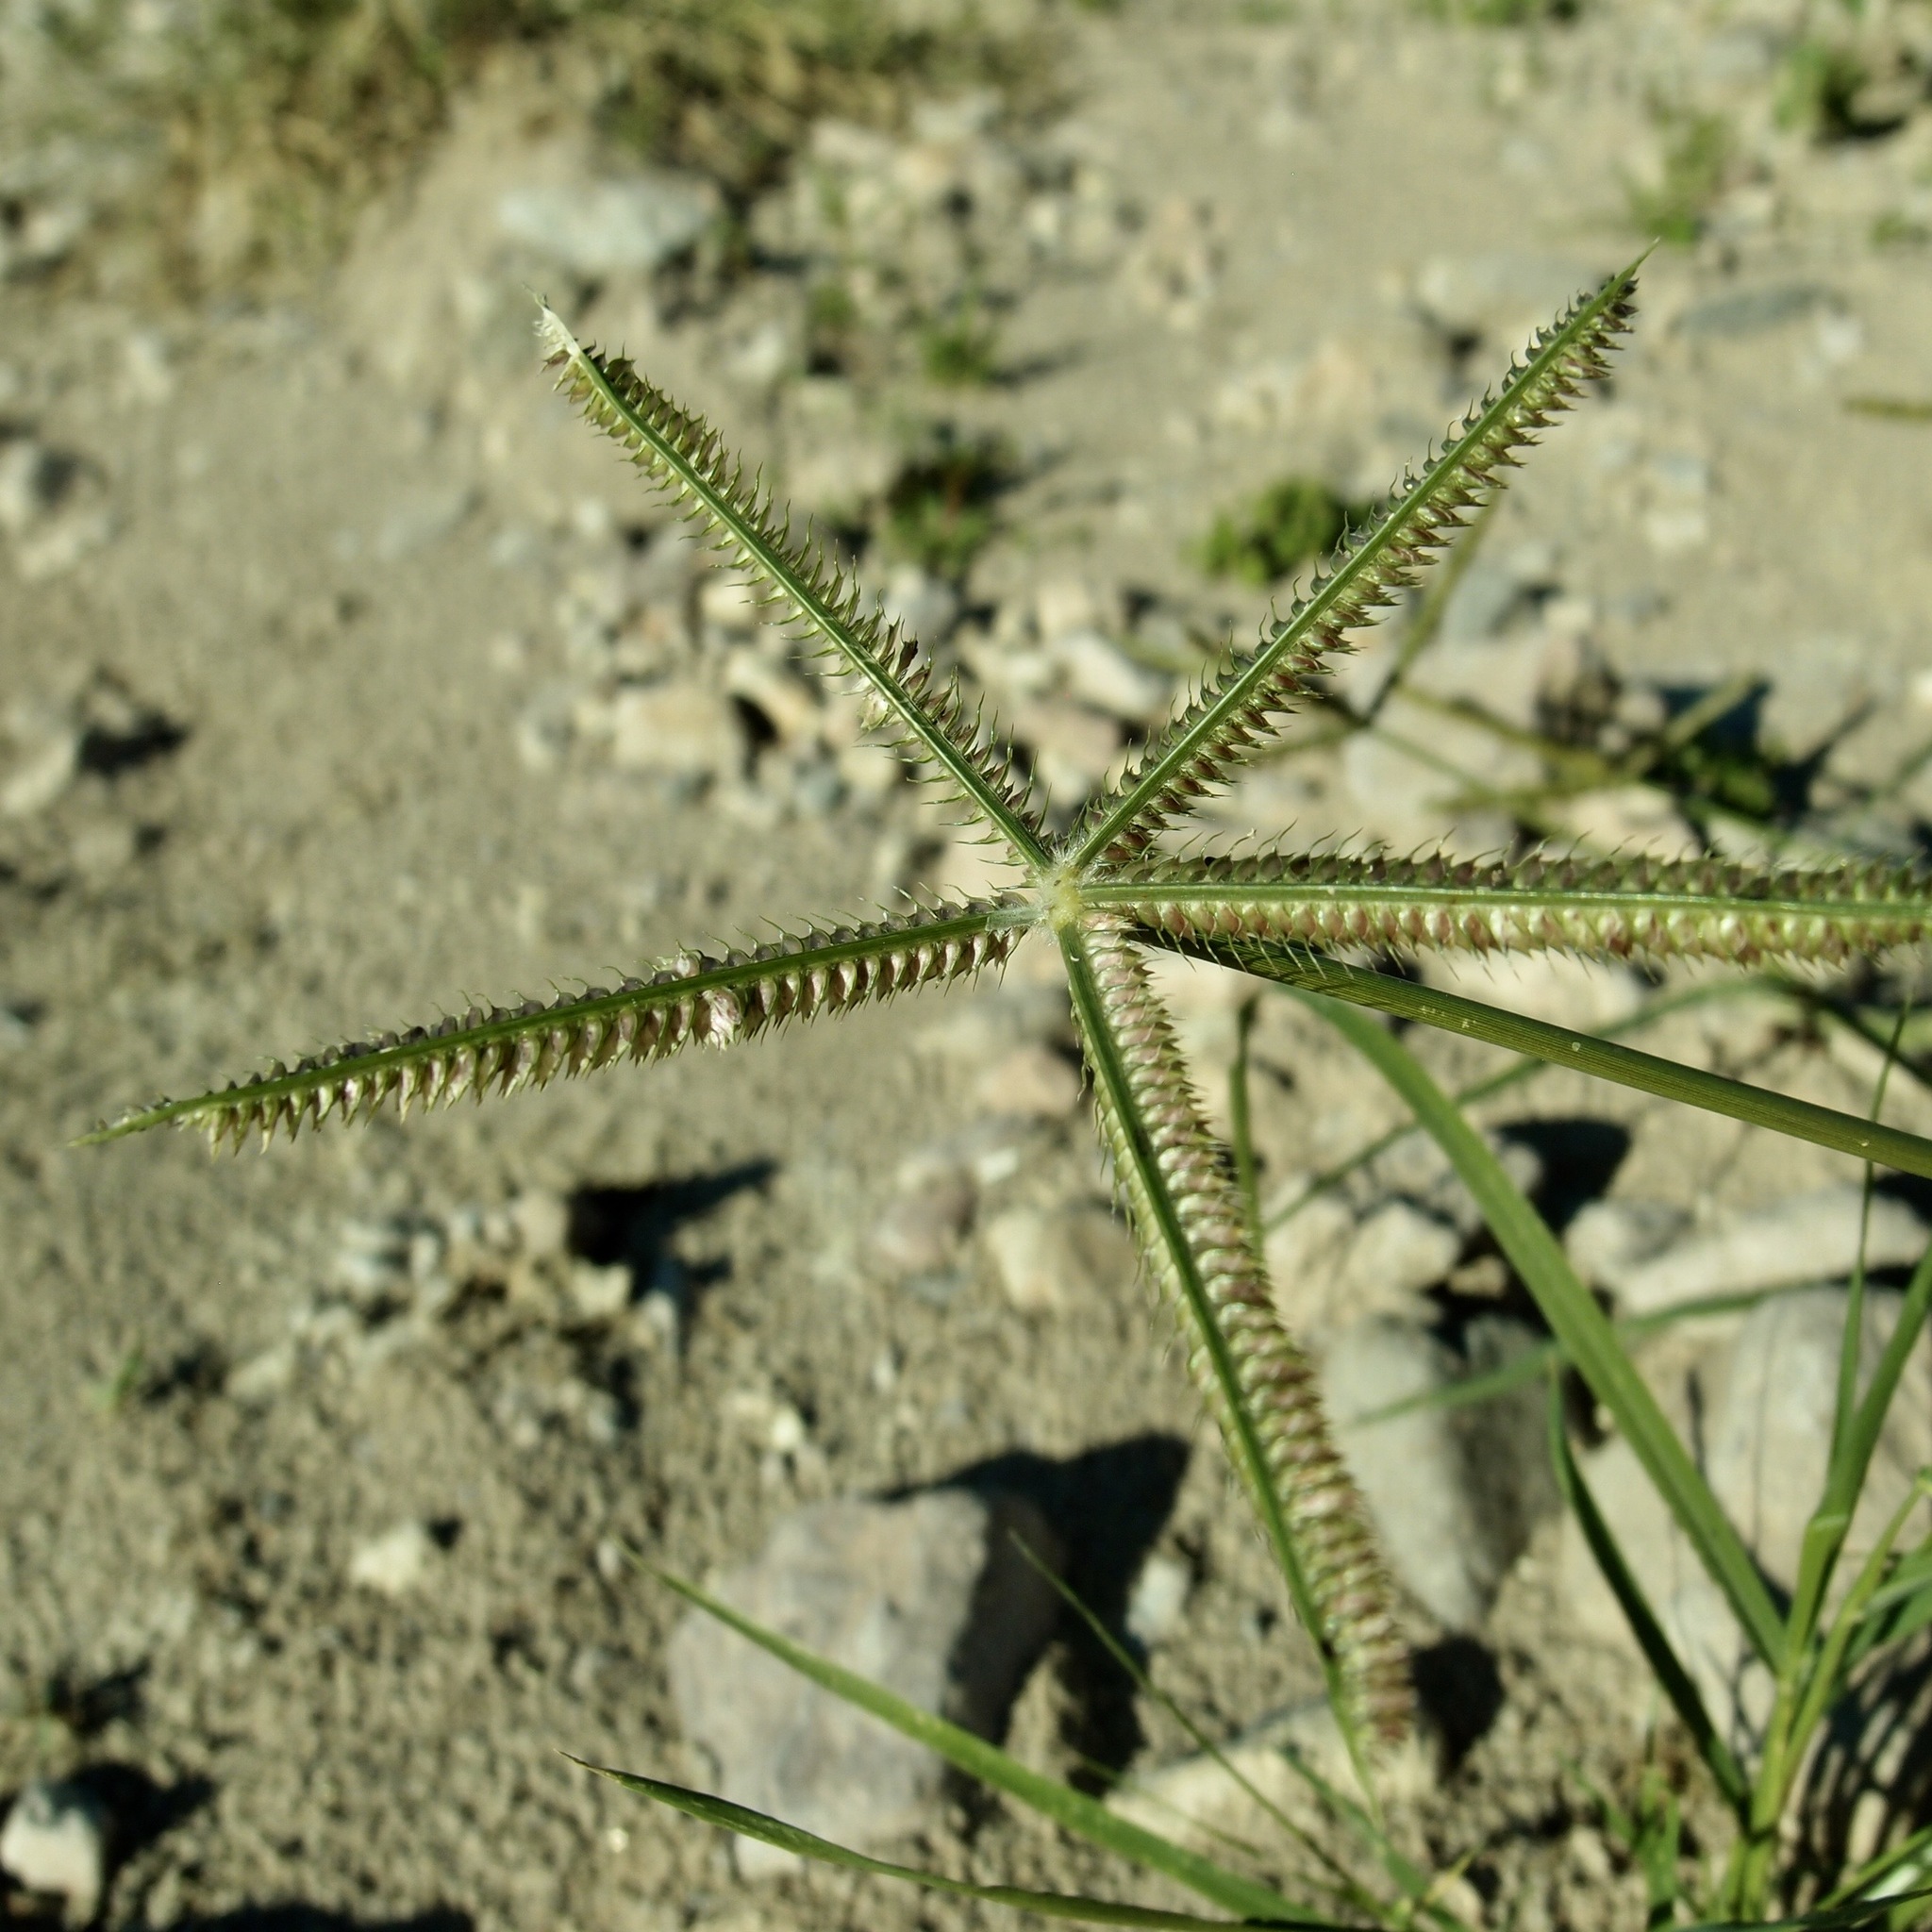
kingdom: Plantae
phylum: Tracheophyta
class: Liliopsida
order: Poales
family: Poaceae
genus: Dactyloctenium
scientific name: Dactyloctenium aegyptium
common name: Egyptian grass
